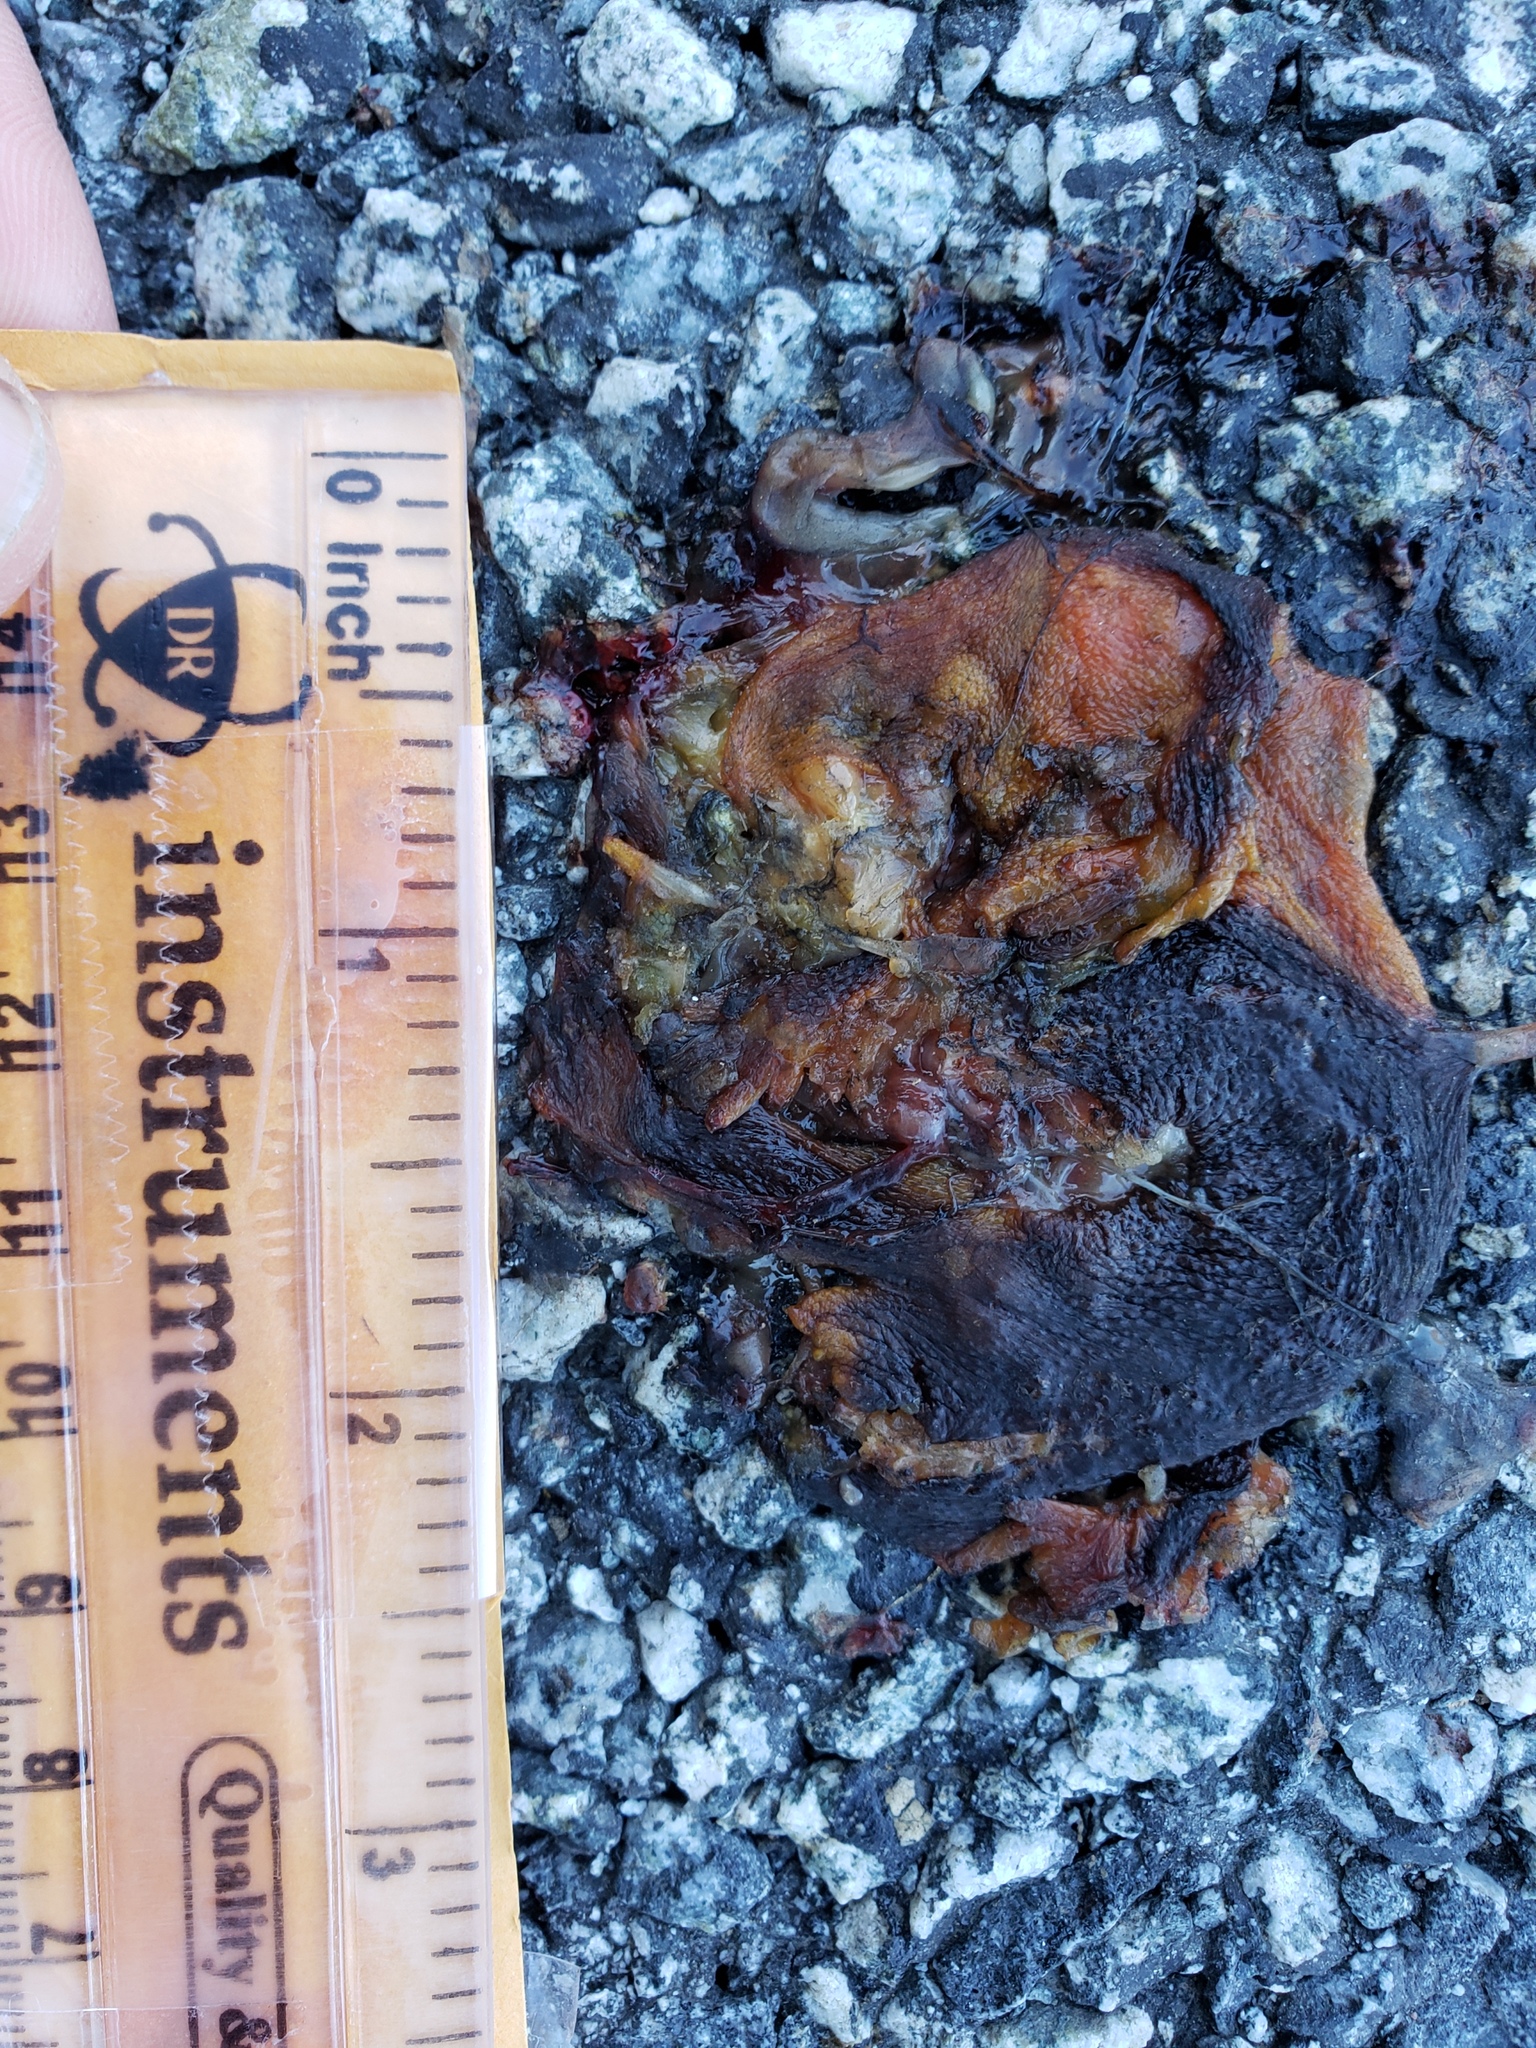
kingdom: Animalia
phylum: Chordata
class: Amphibia
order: Caudata
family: Salamandridae
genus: Taricha
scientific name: Taricha
